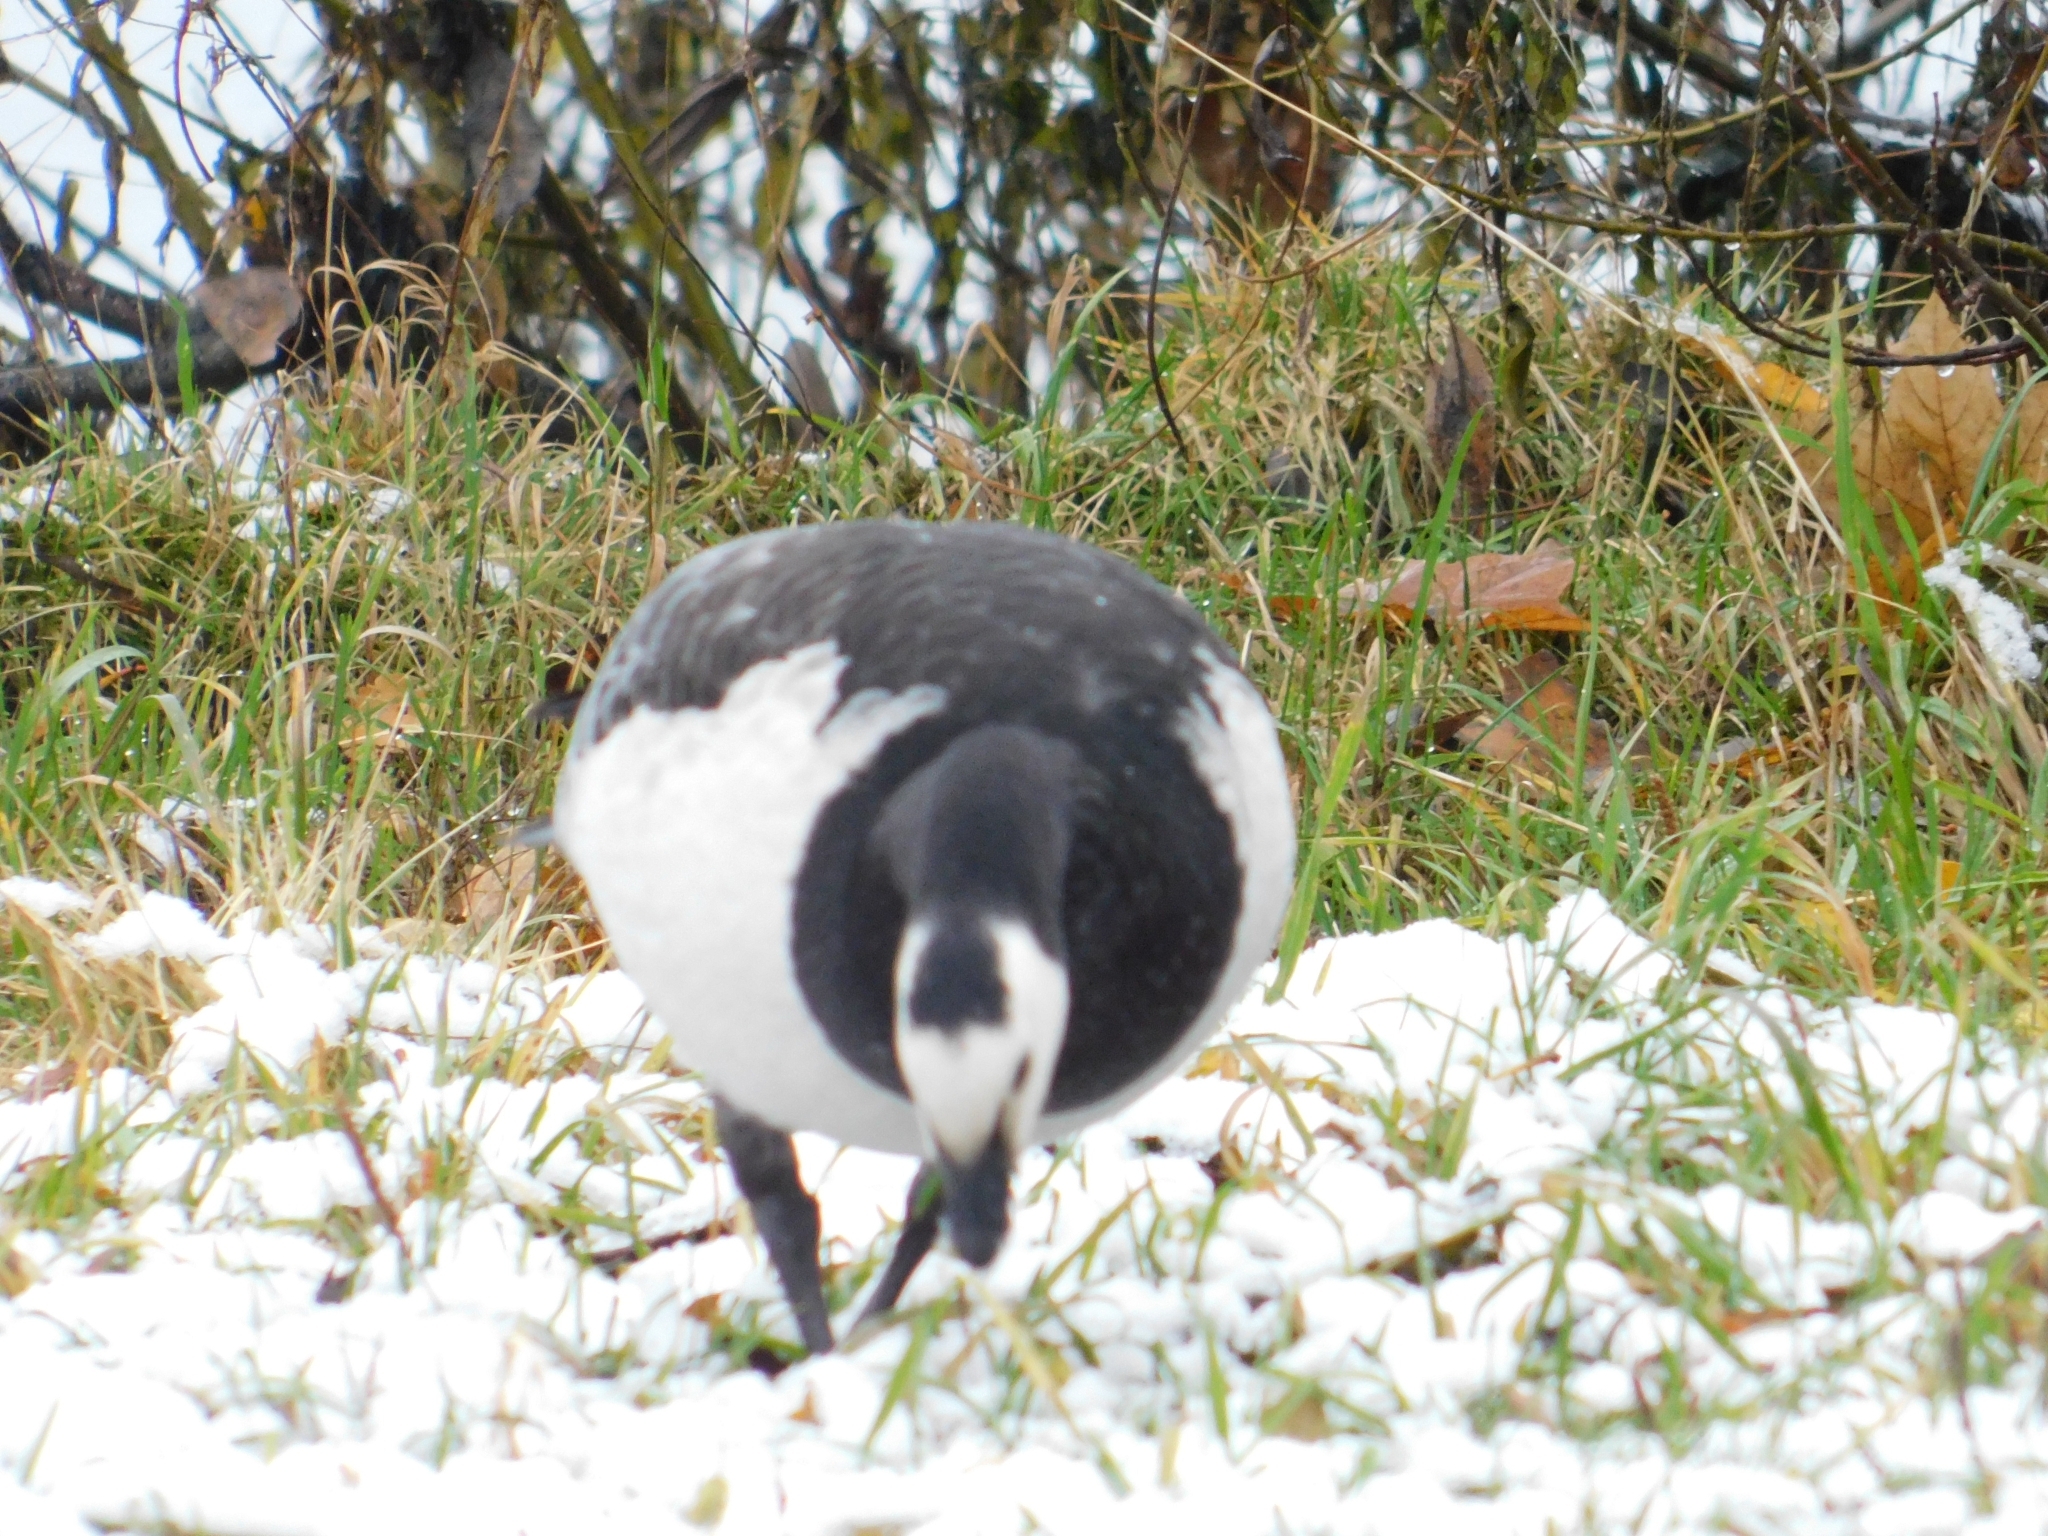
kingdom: Animalia
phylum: Chordata
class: Aves
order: Anseriformes
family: Anatidae
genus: Branta
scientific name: Branta leucopsis
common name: Barnacle goose
